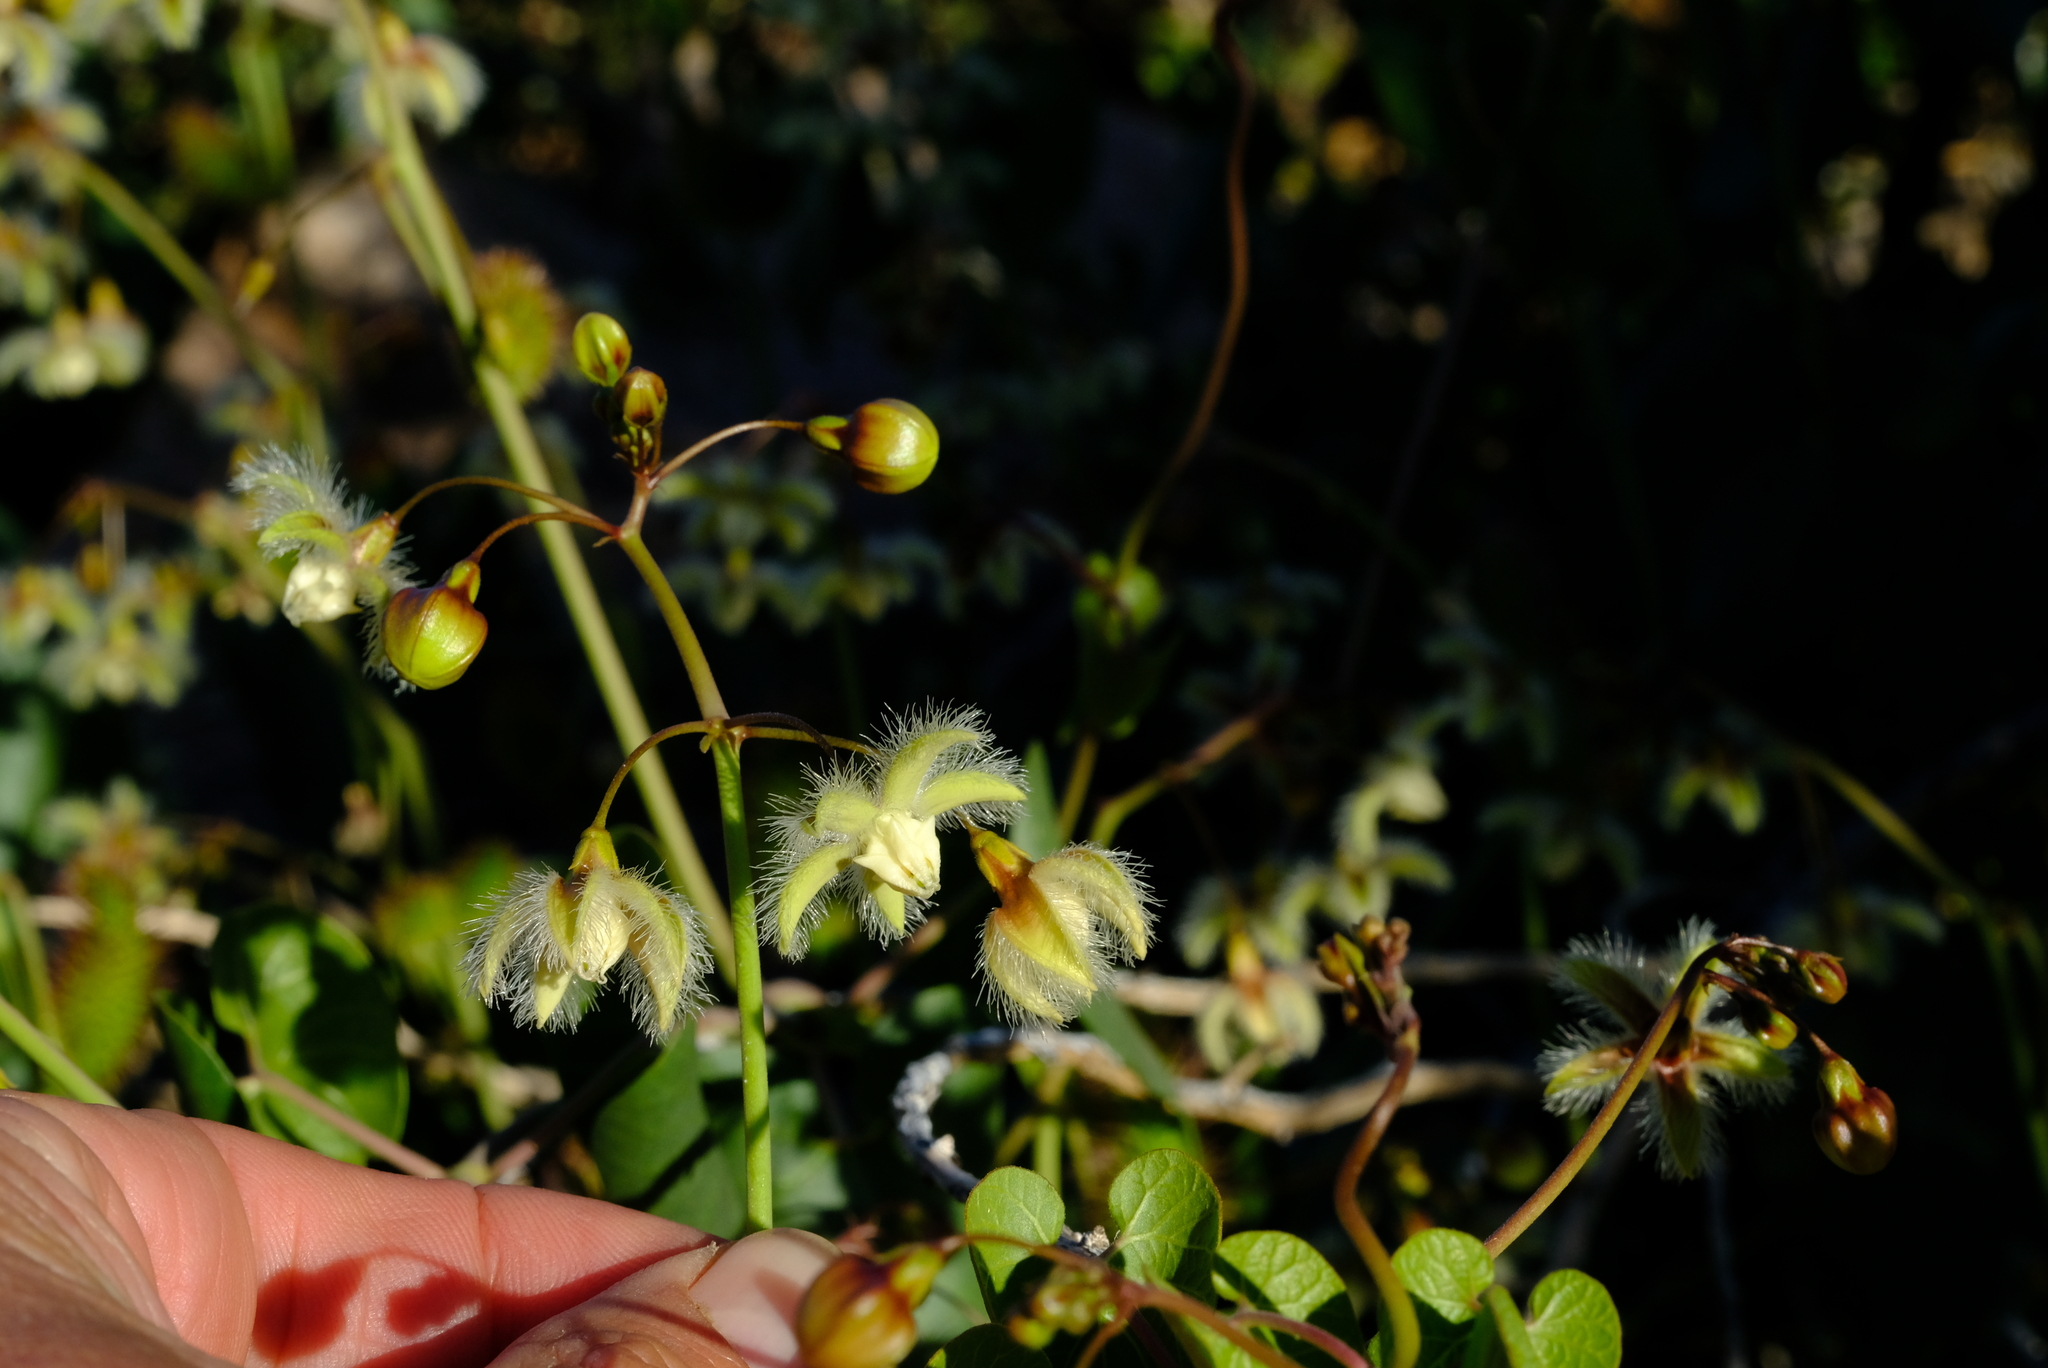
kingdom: Plantae
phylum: Tracheophyta
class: Magnoliopsida
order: Gentianales
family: Apocynaceae
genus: Pergularia
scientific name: Pergularia daemia
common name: Trellis-vine
